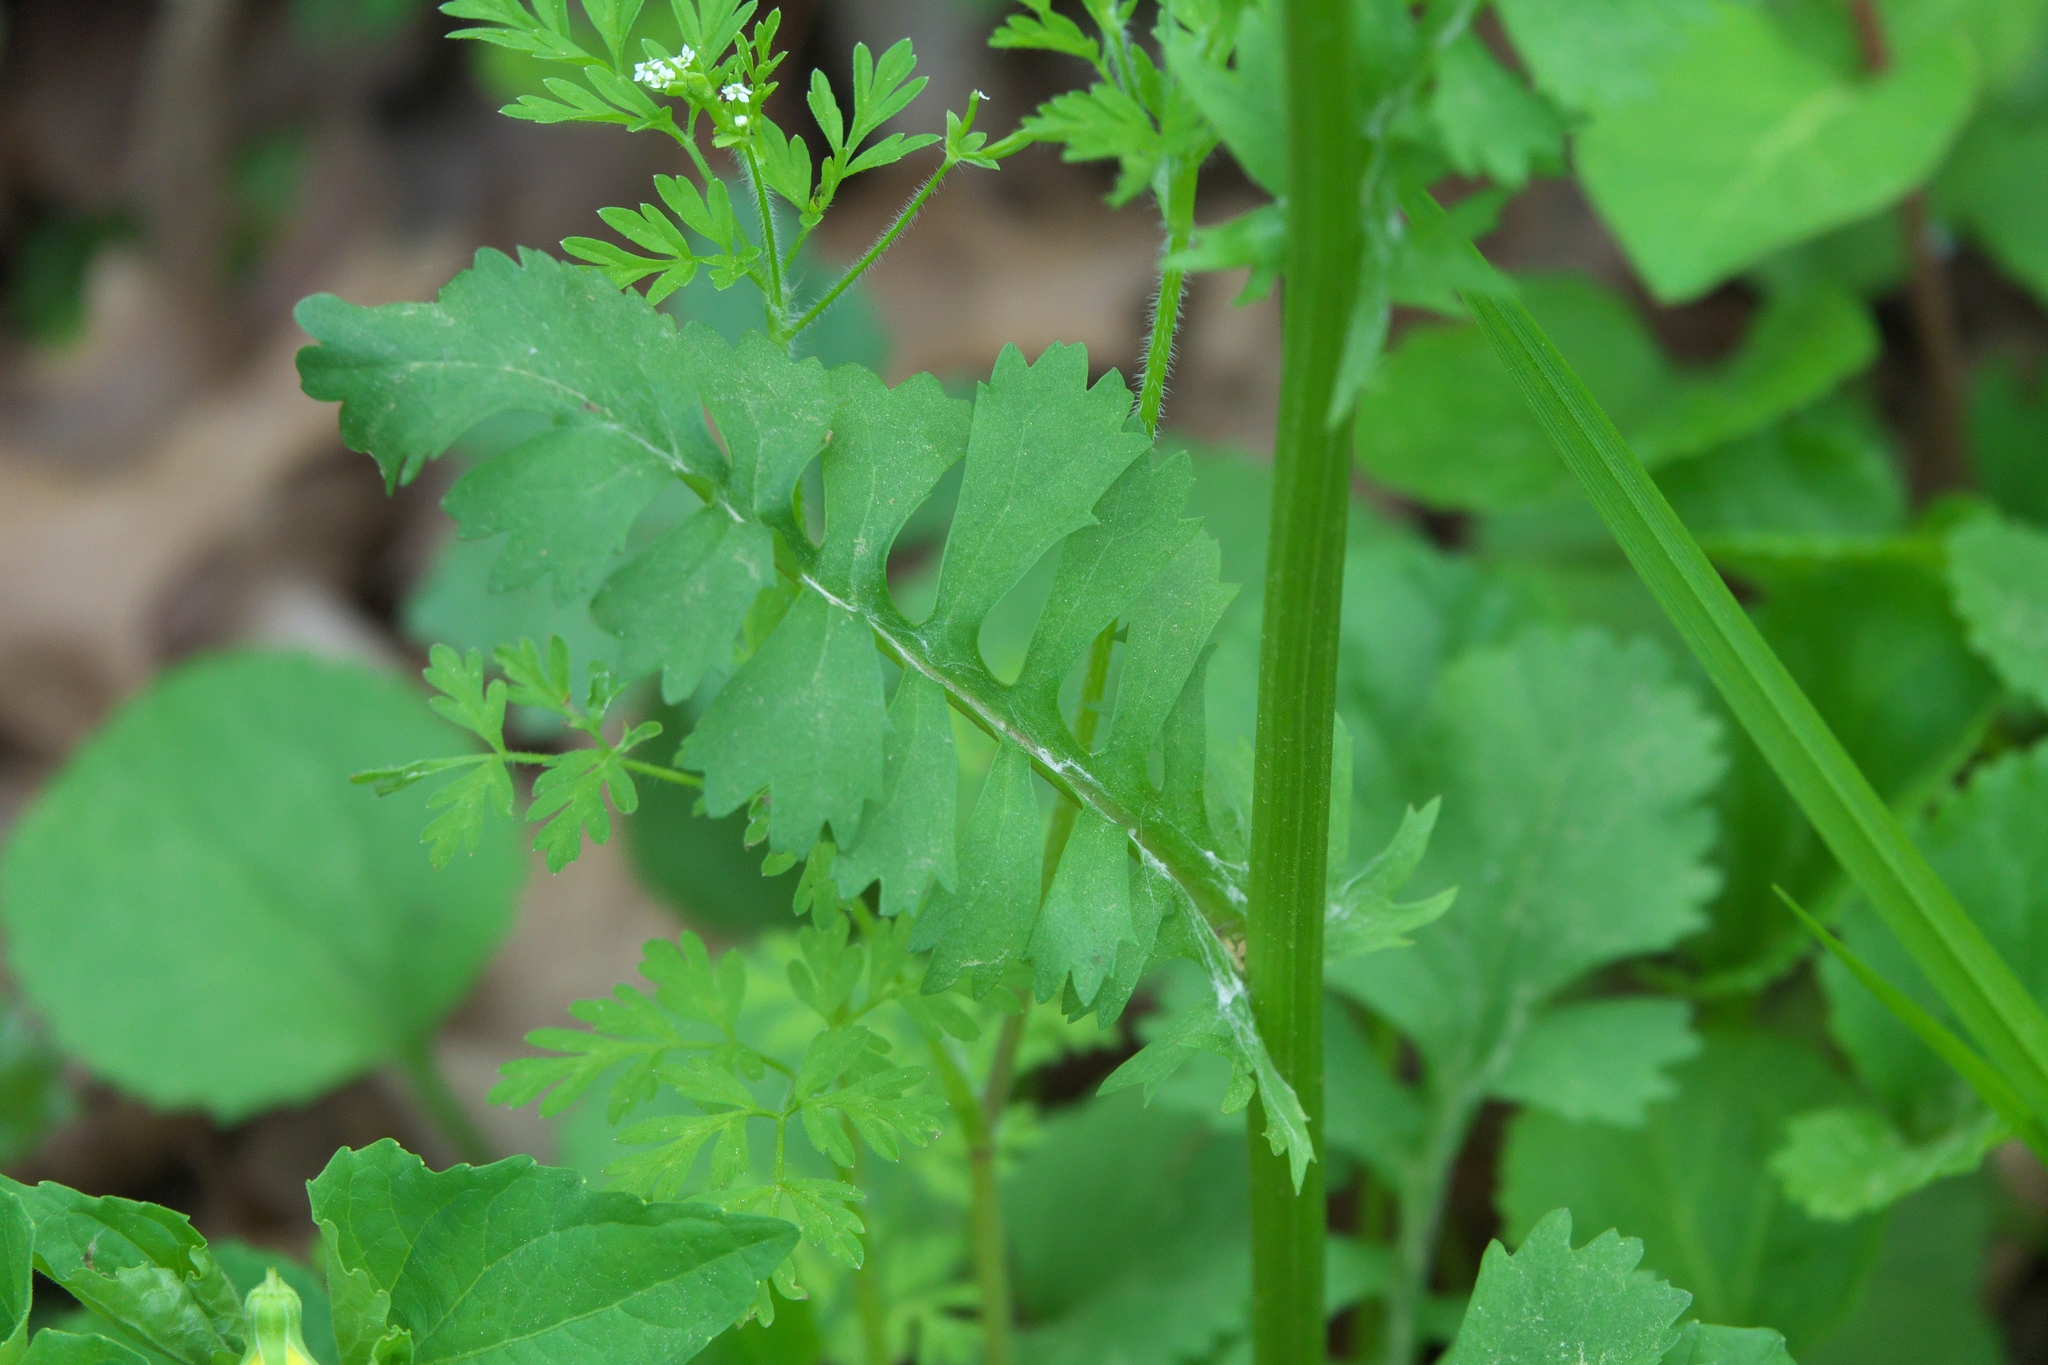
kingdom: Plantae
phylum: Tracheophyta
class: Magnoliopsida
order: Asterales
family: Asteraceae
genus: Packera
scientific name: Packera obovata
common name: Round-leaf ragwort
